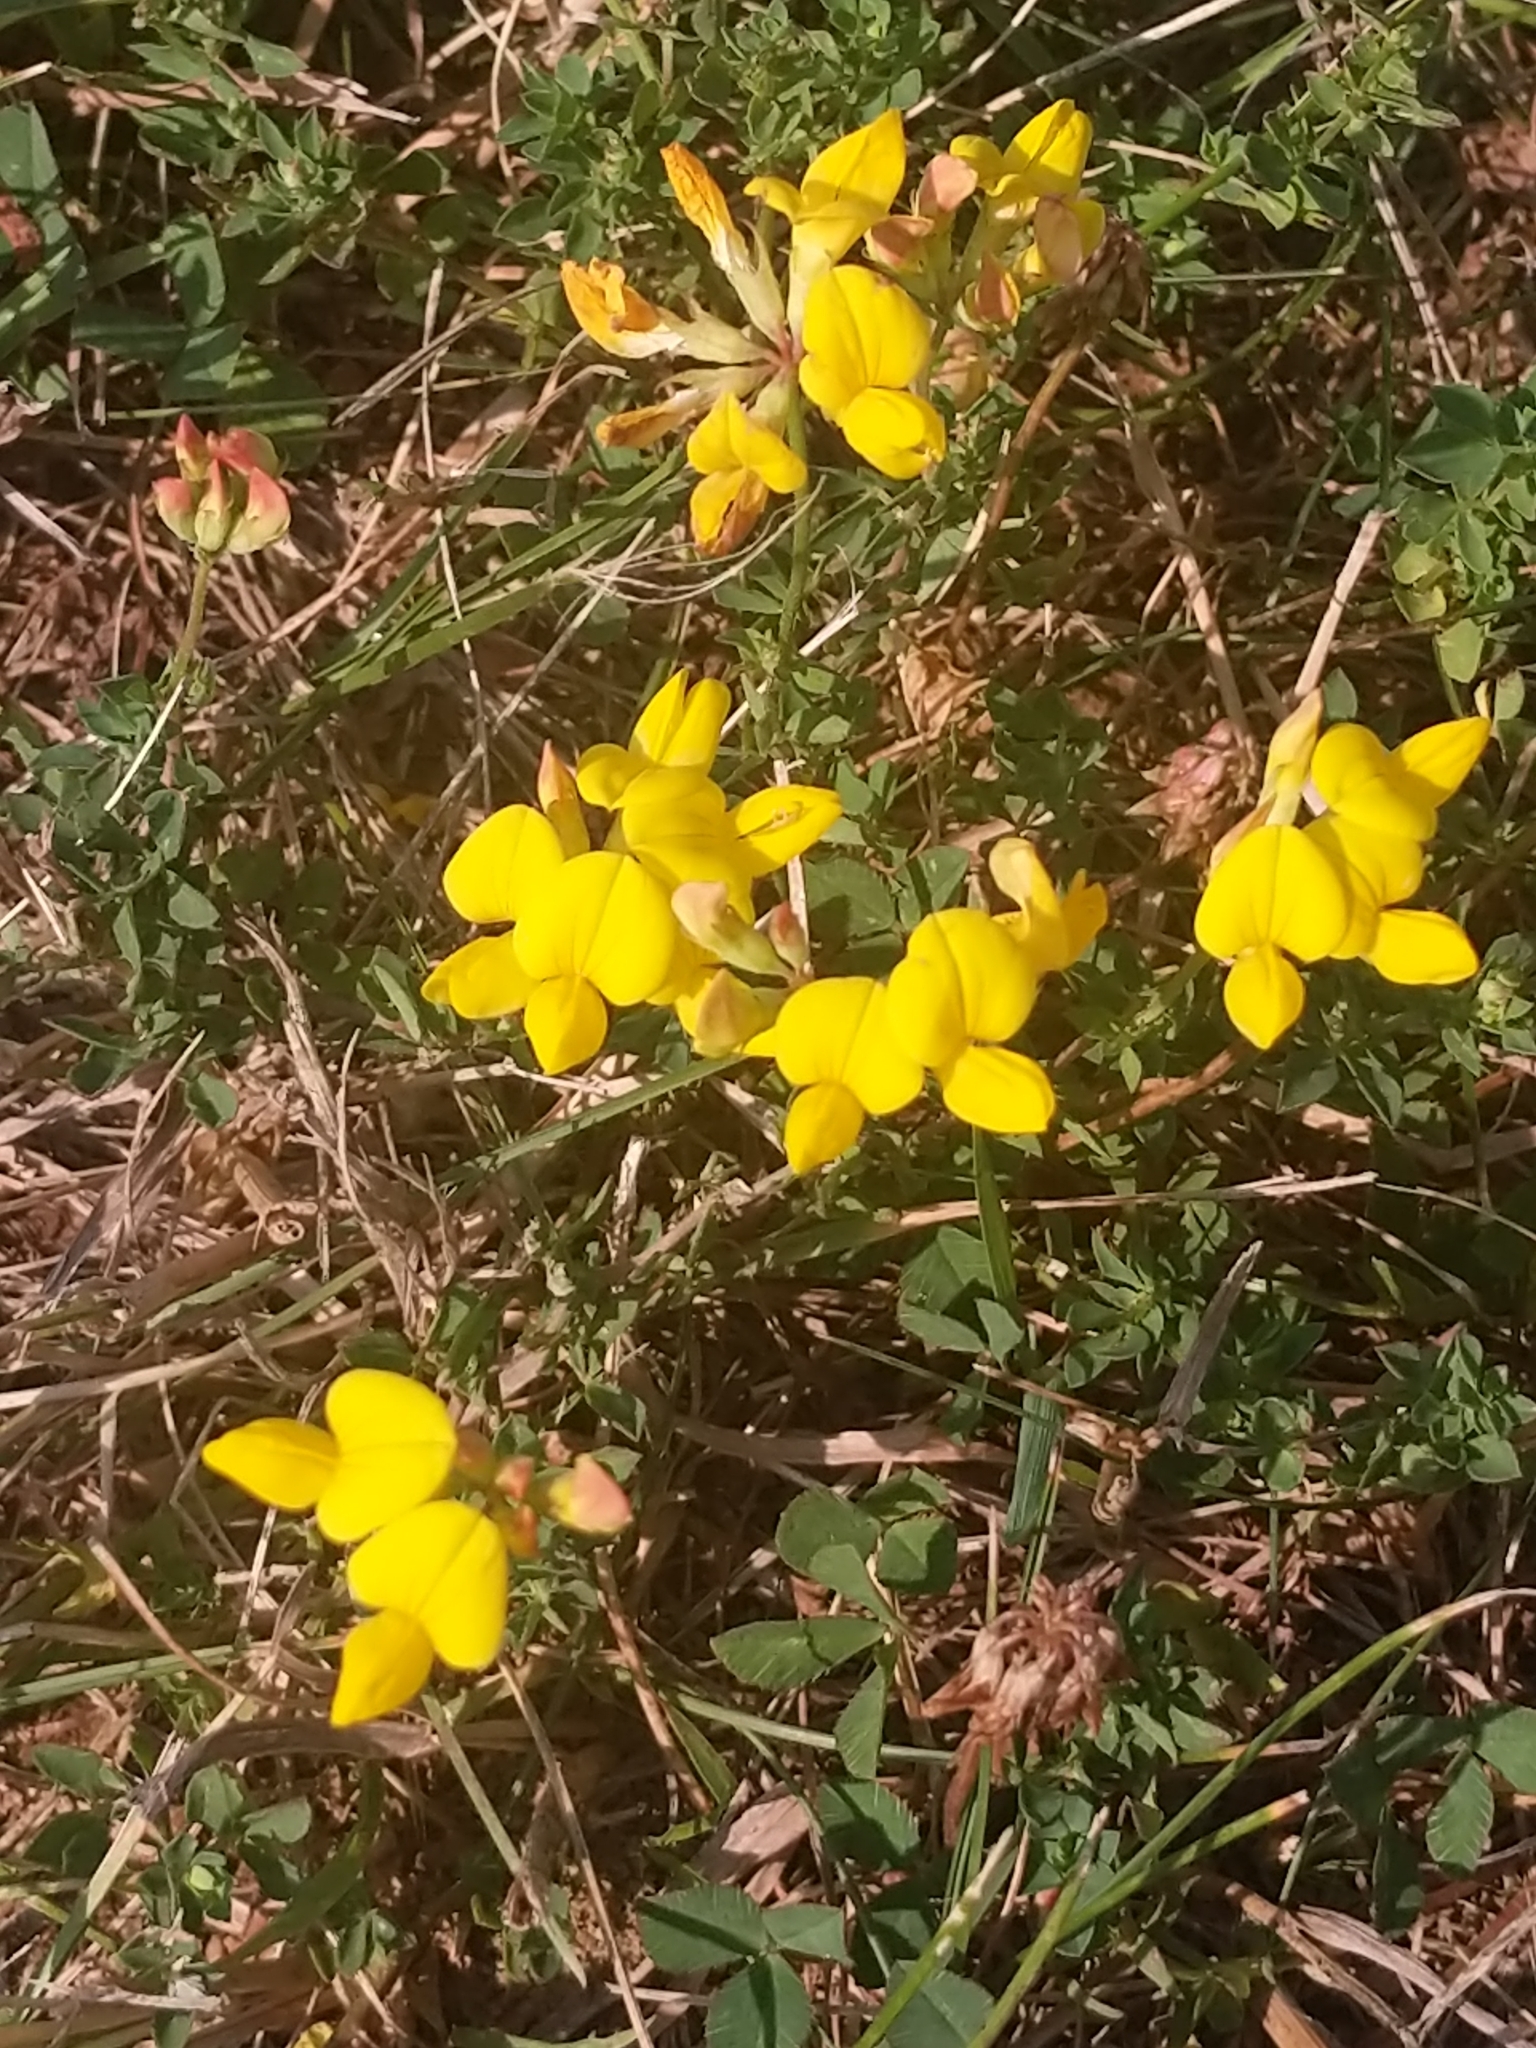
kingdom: Plantae
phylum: Tracheophyta
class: Magnoliopsida
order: Fabales
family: Fabaceae
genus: Lotus
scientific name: Lotus corniculatus
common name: Common bird's-foot-trefoil
